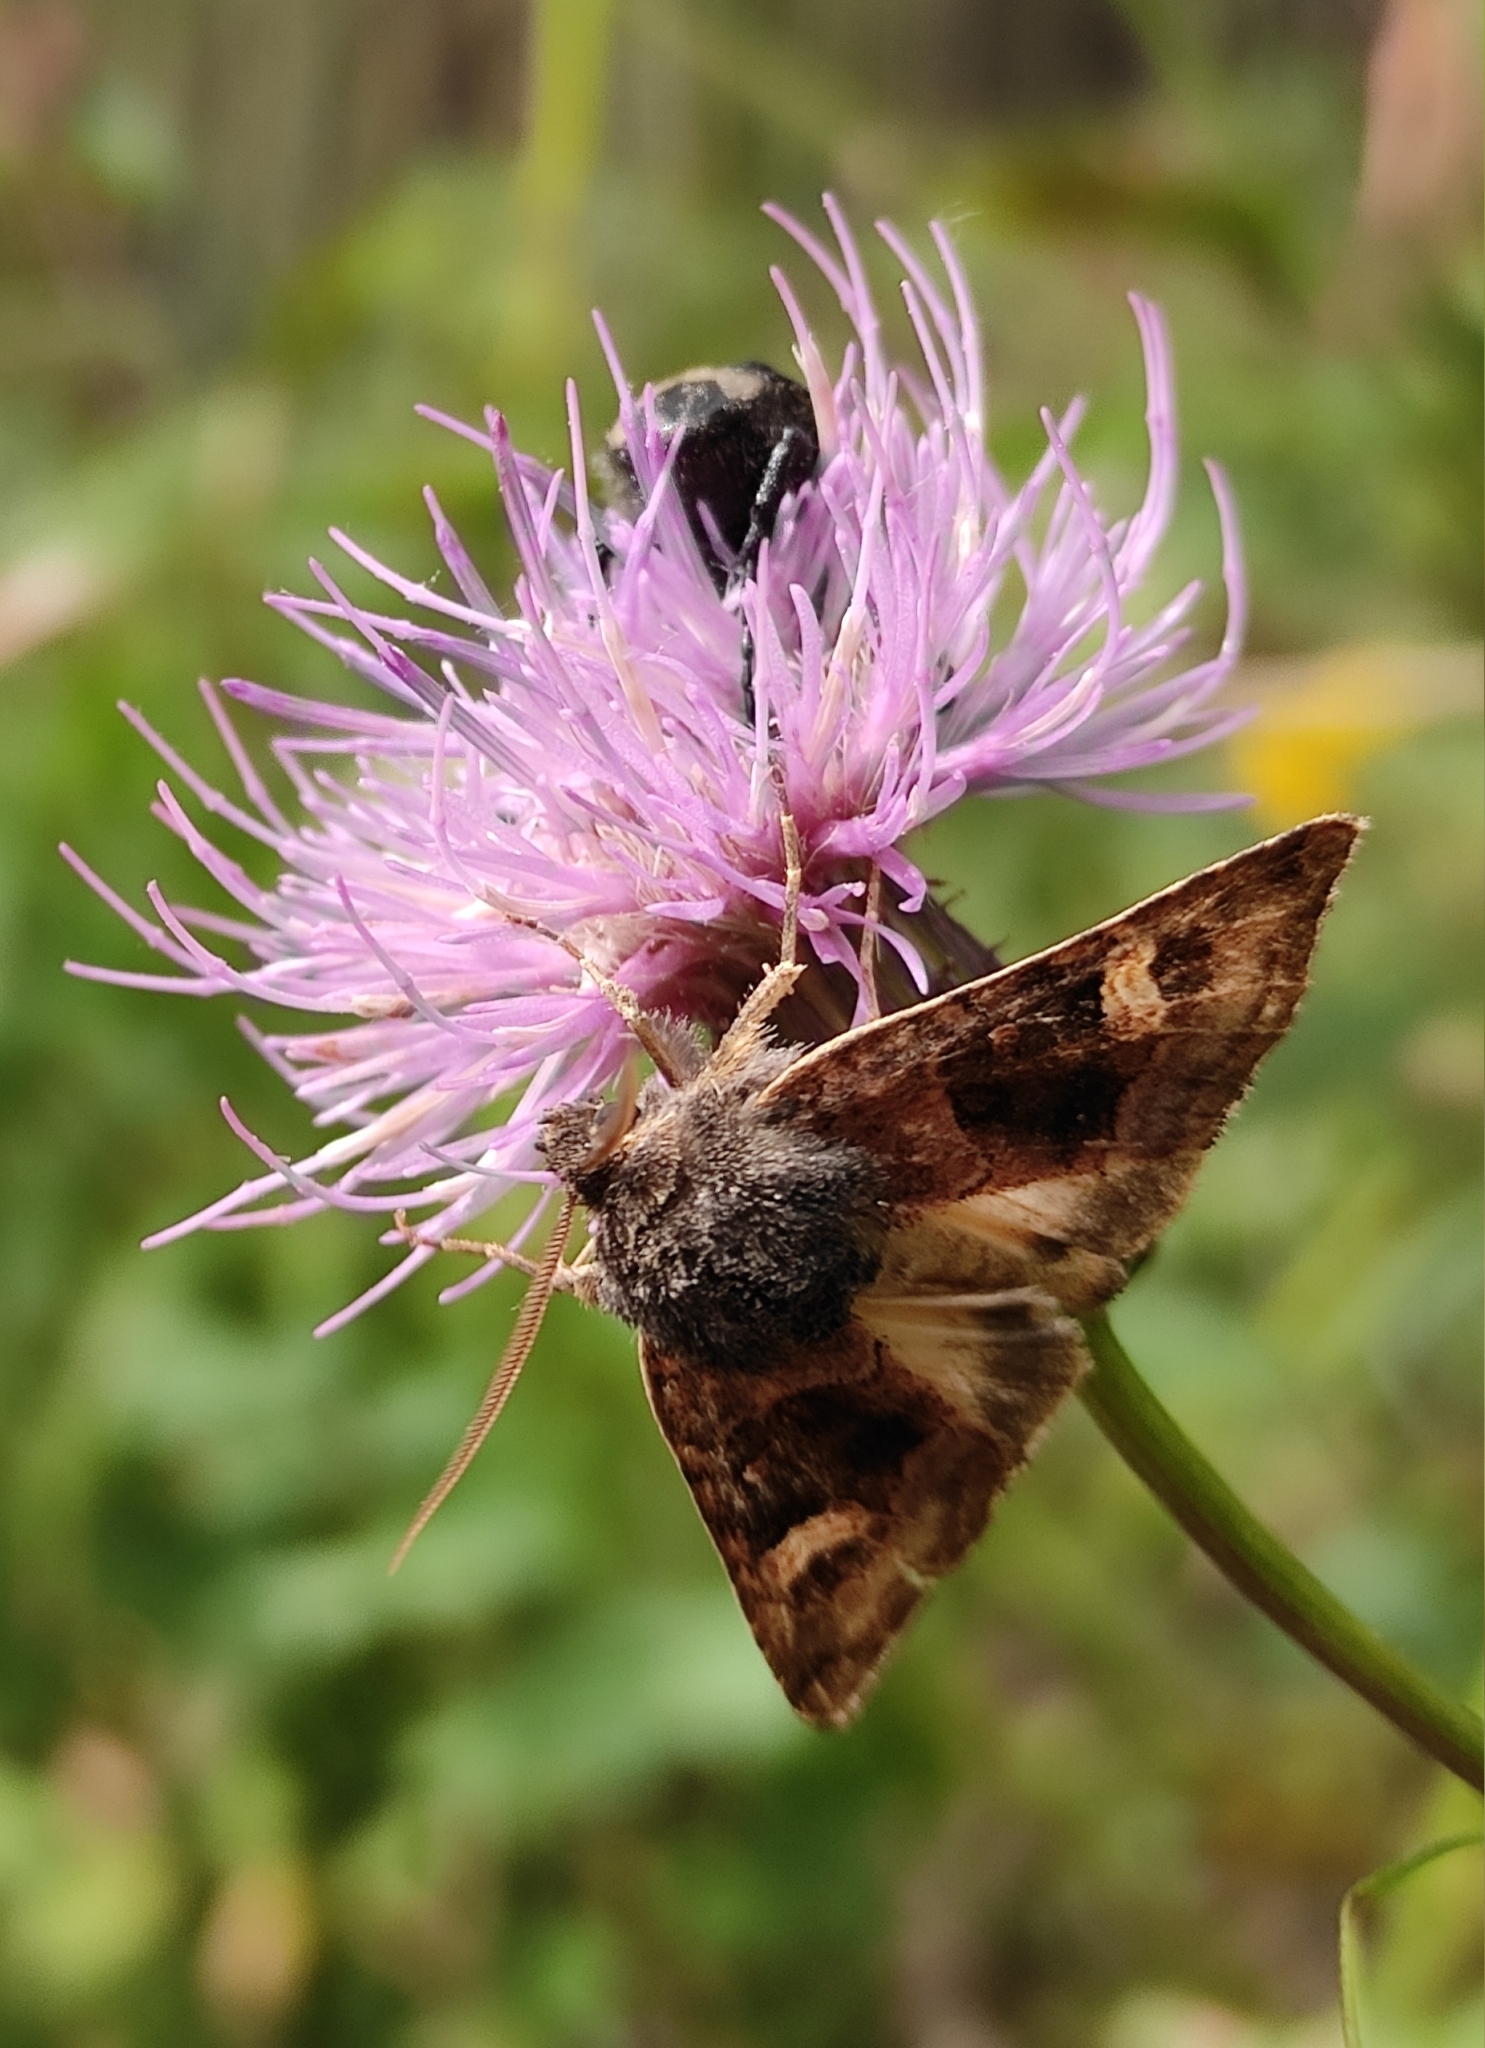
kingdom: Animalia
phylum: Arthropoda
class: Insecta
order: Lepidoptera
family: Noctuidae
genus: Nyssocnemis
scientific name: Nyssocnemis eversmanni
